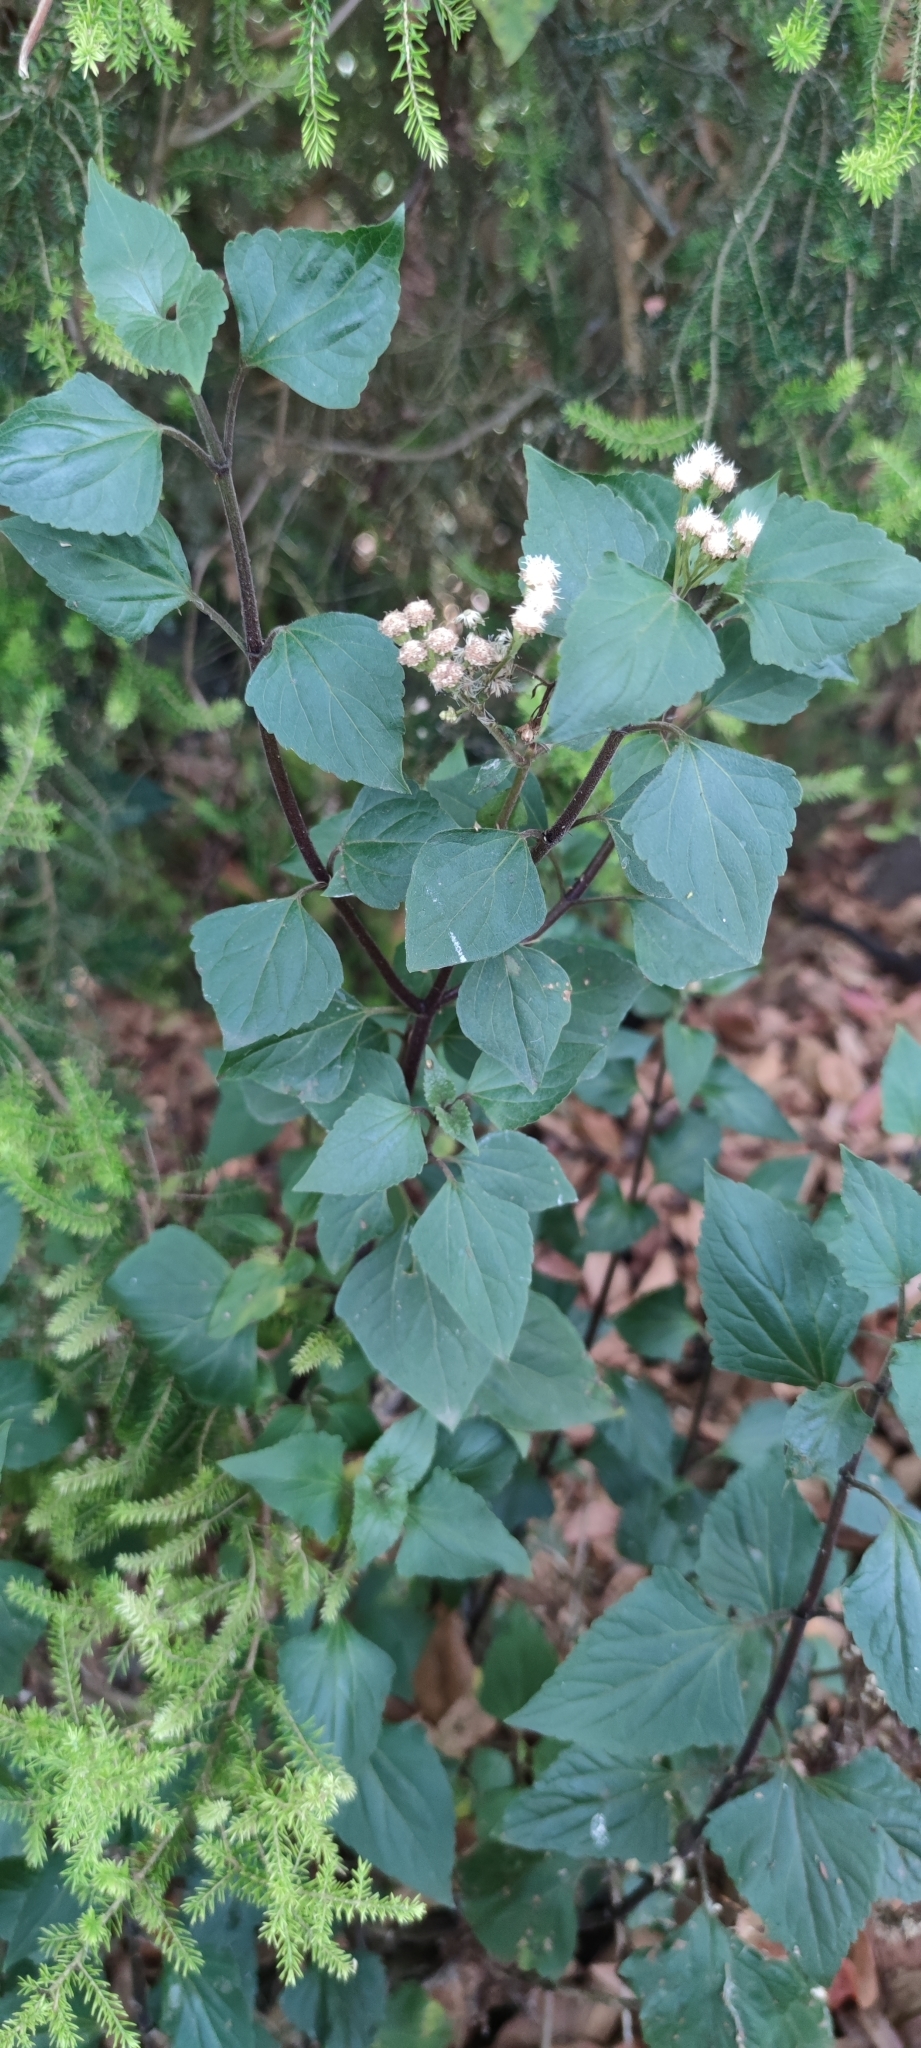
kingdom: Plantae
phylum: Tracheophyta
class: Magnoliopsida
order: Asterales
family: Asteraceae
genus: Ageratina
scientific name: Ageratina adenophora
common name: Sticky snakeroot
